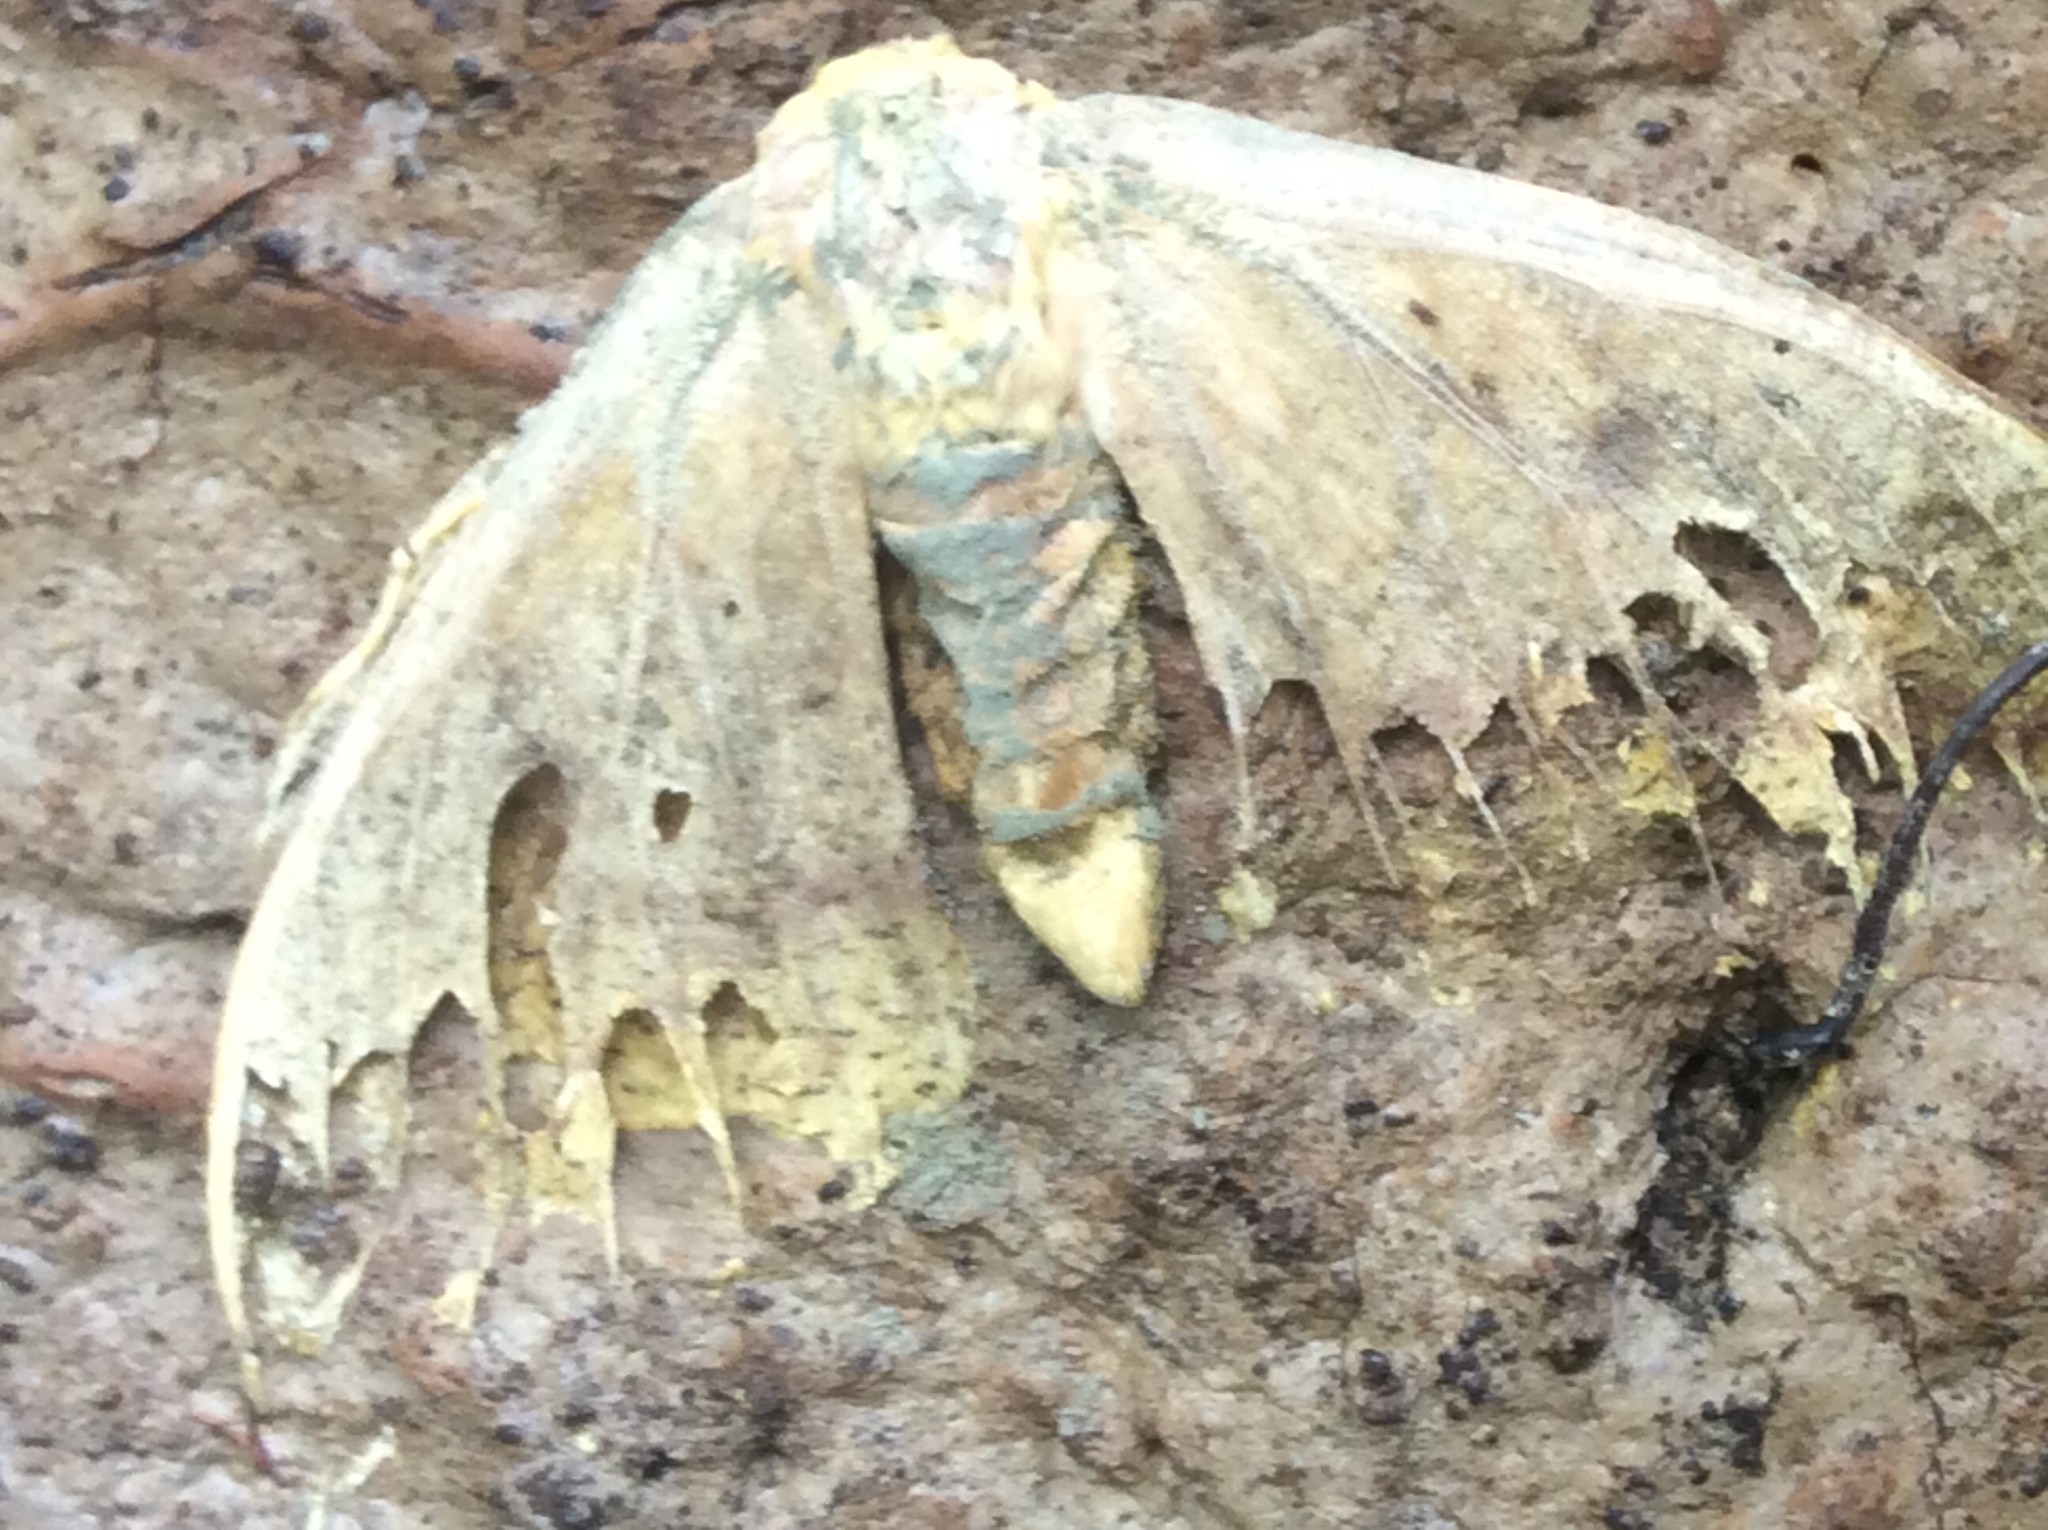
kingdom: Animalia
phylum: Arthropoda
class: Insecta
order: Lepidoptera
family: Saturniidae
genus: Eacles
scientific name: Eacles imperialis
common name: Imperial moth
